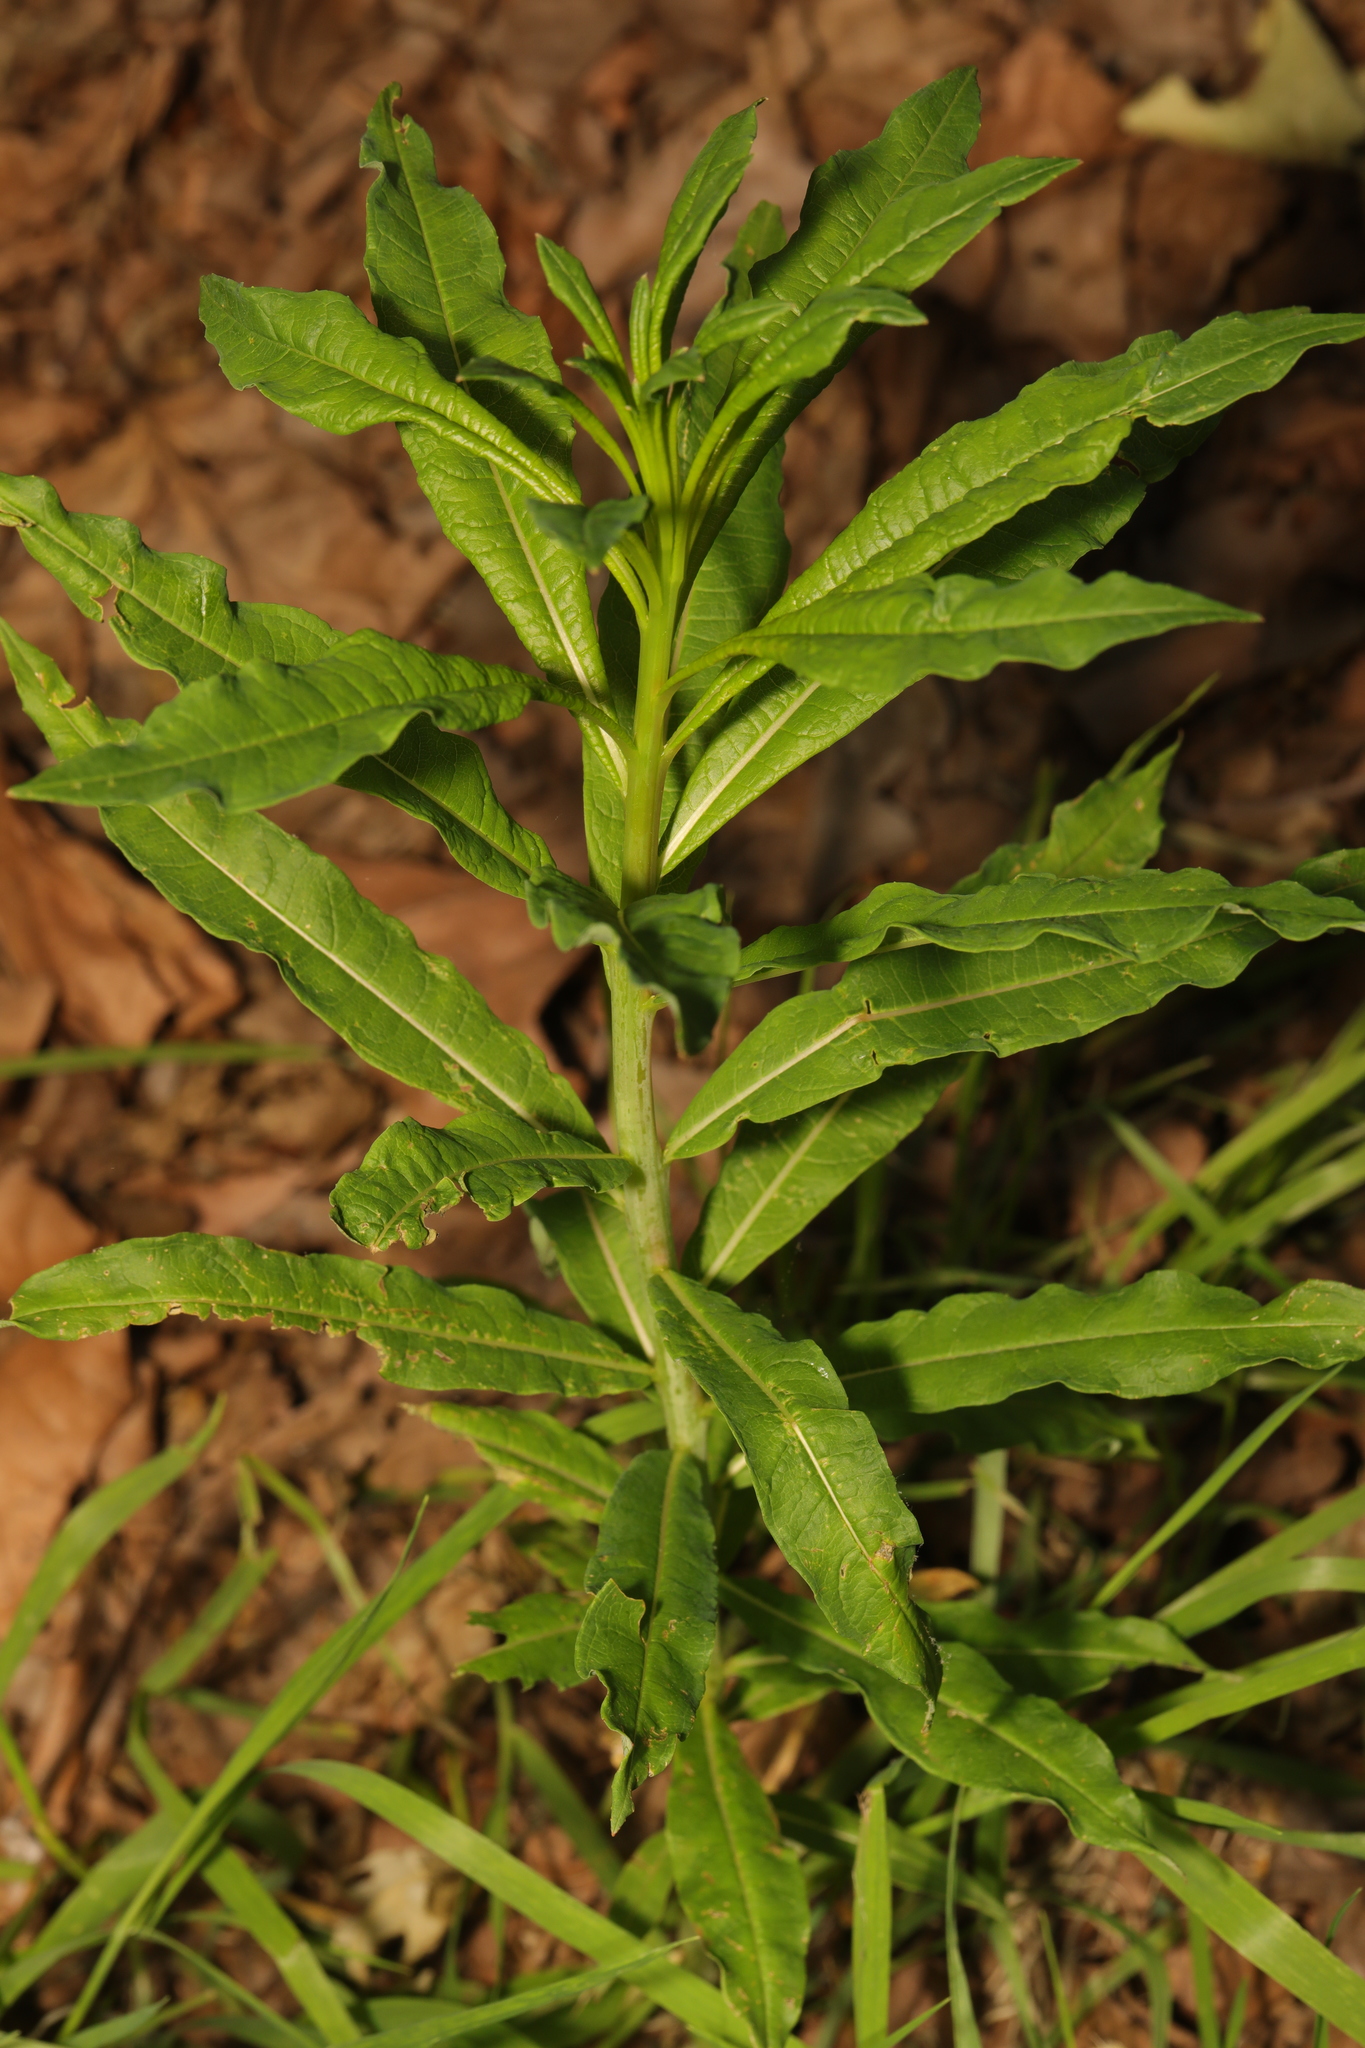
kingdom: Plantae
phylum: Tracheophyta
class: Magnoliopsida
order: Myrtales
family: Onagraceae
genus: Chamaenerion
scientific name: Chamaenerion angustifolium
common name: Fireweed
